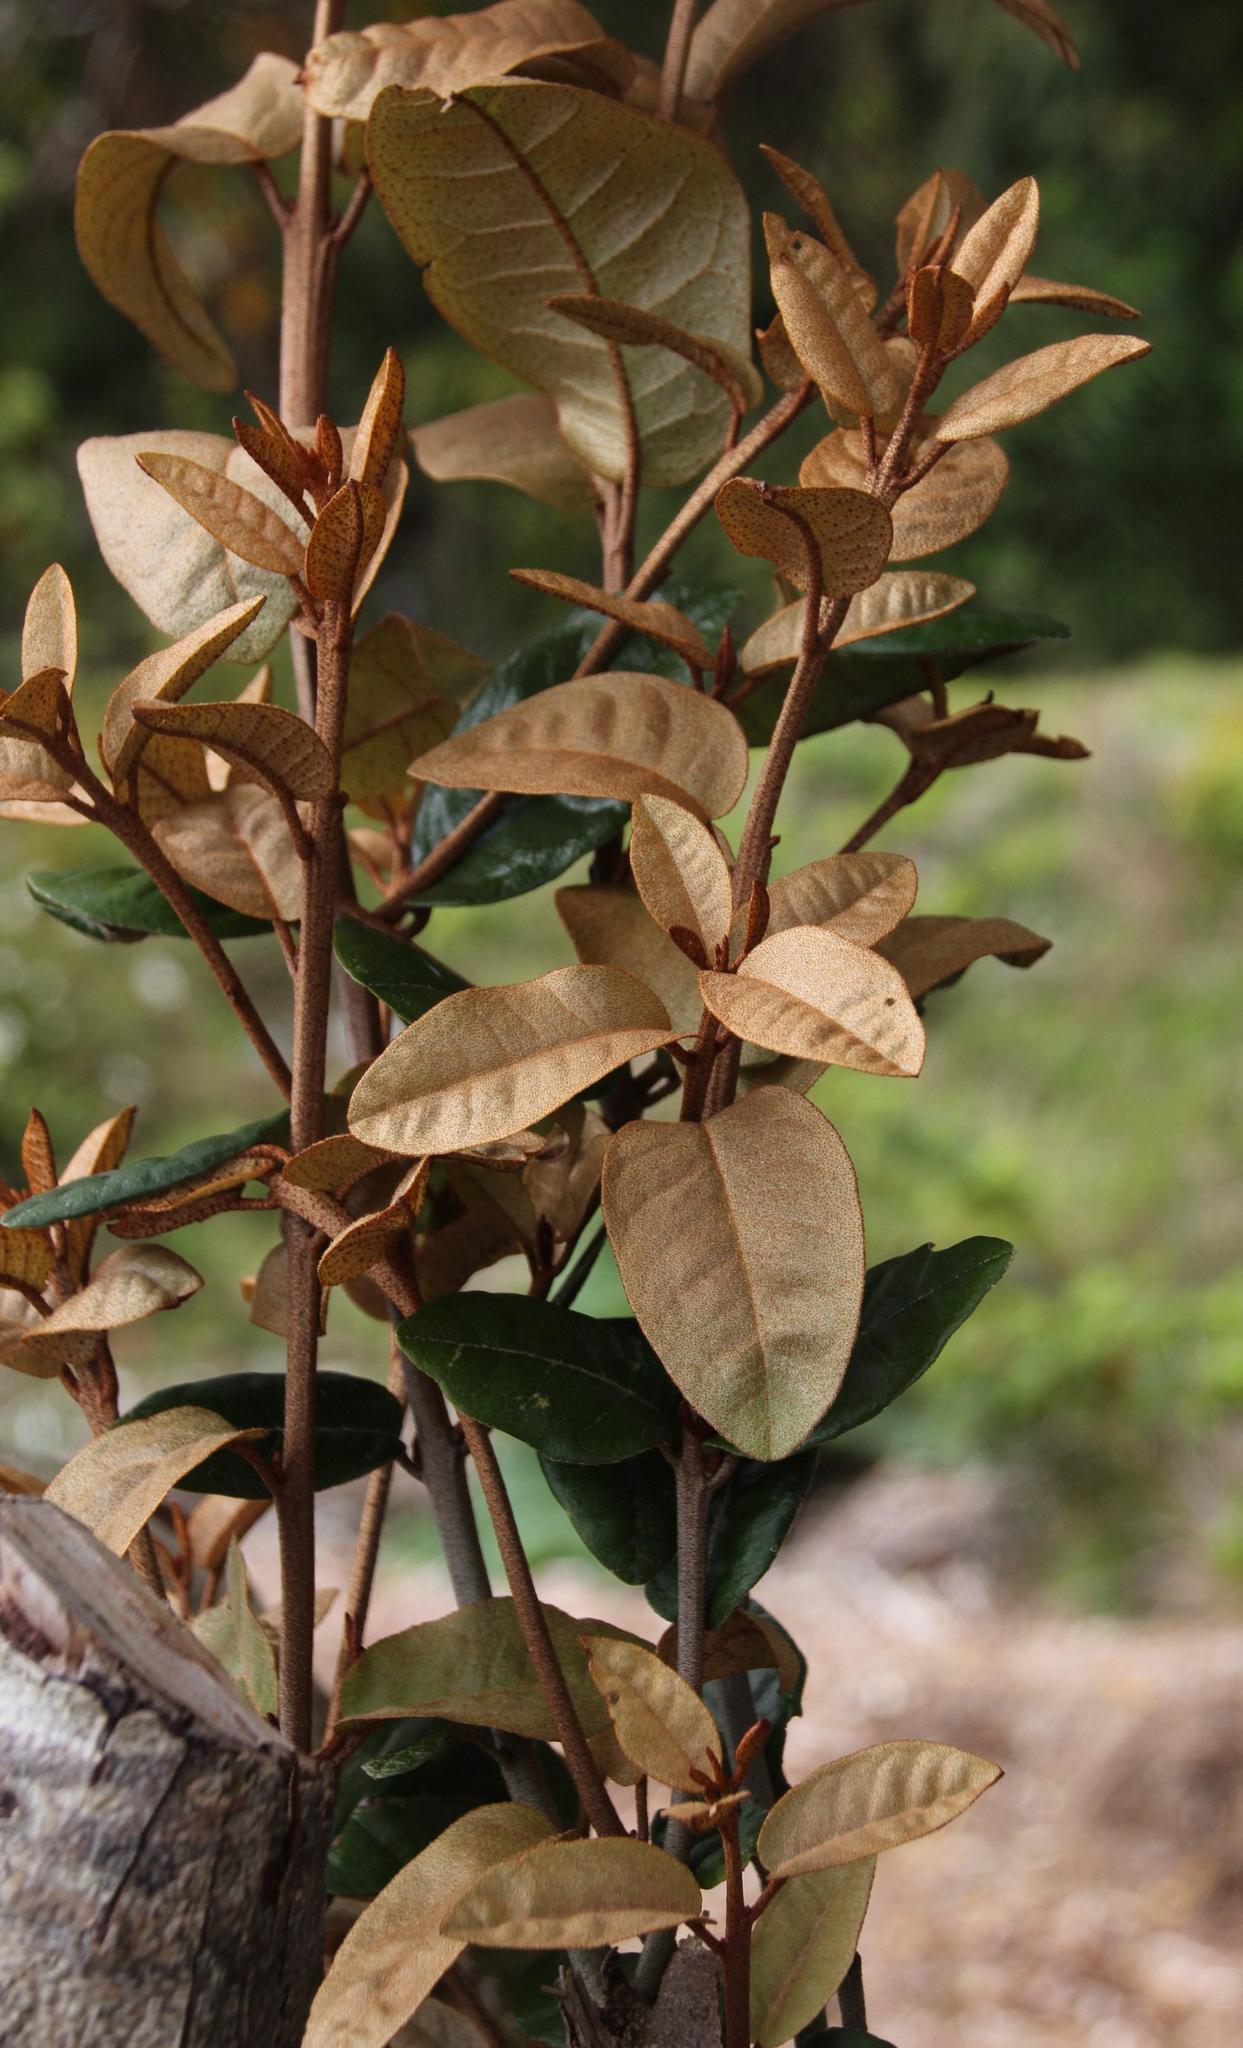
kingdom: Plantae
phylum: Tracheophyta
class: Magnoliopsida
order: Berberidopsidales
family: Aextoxicaceae
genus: Aextoxicon
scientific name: Aextoxicon punctatum
